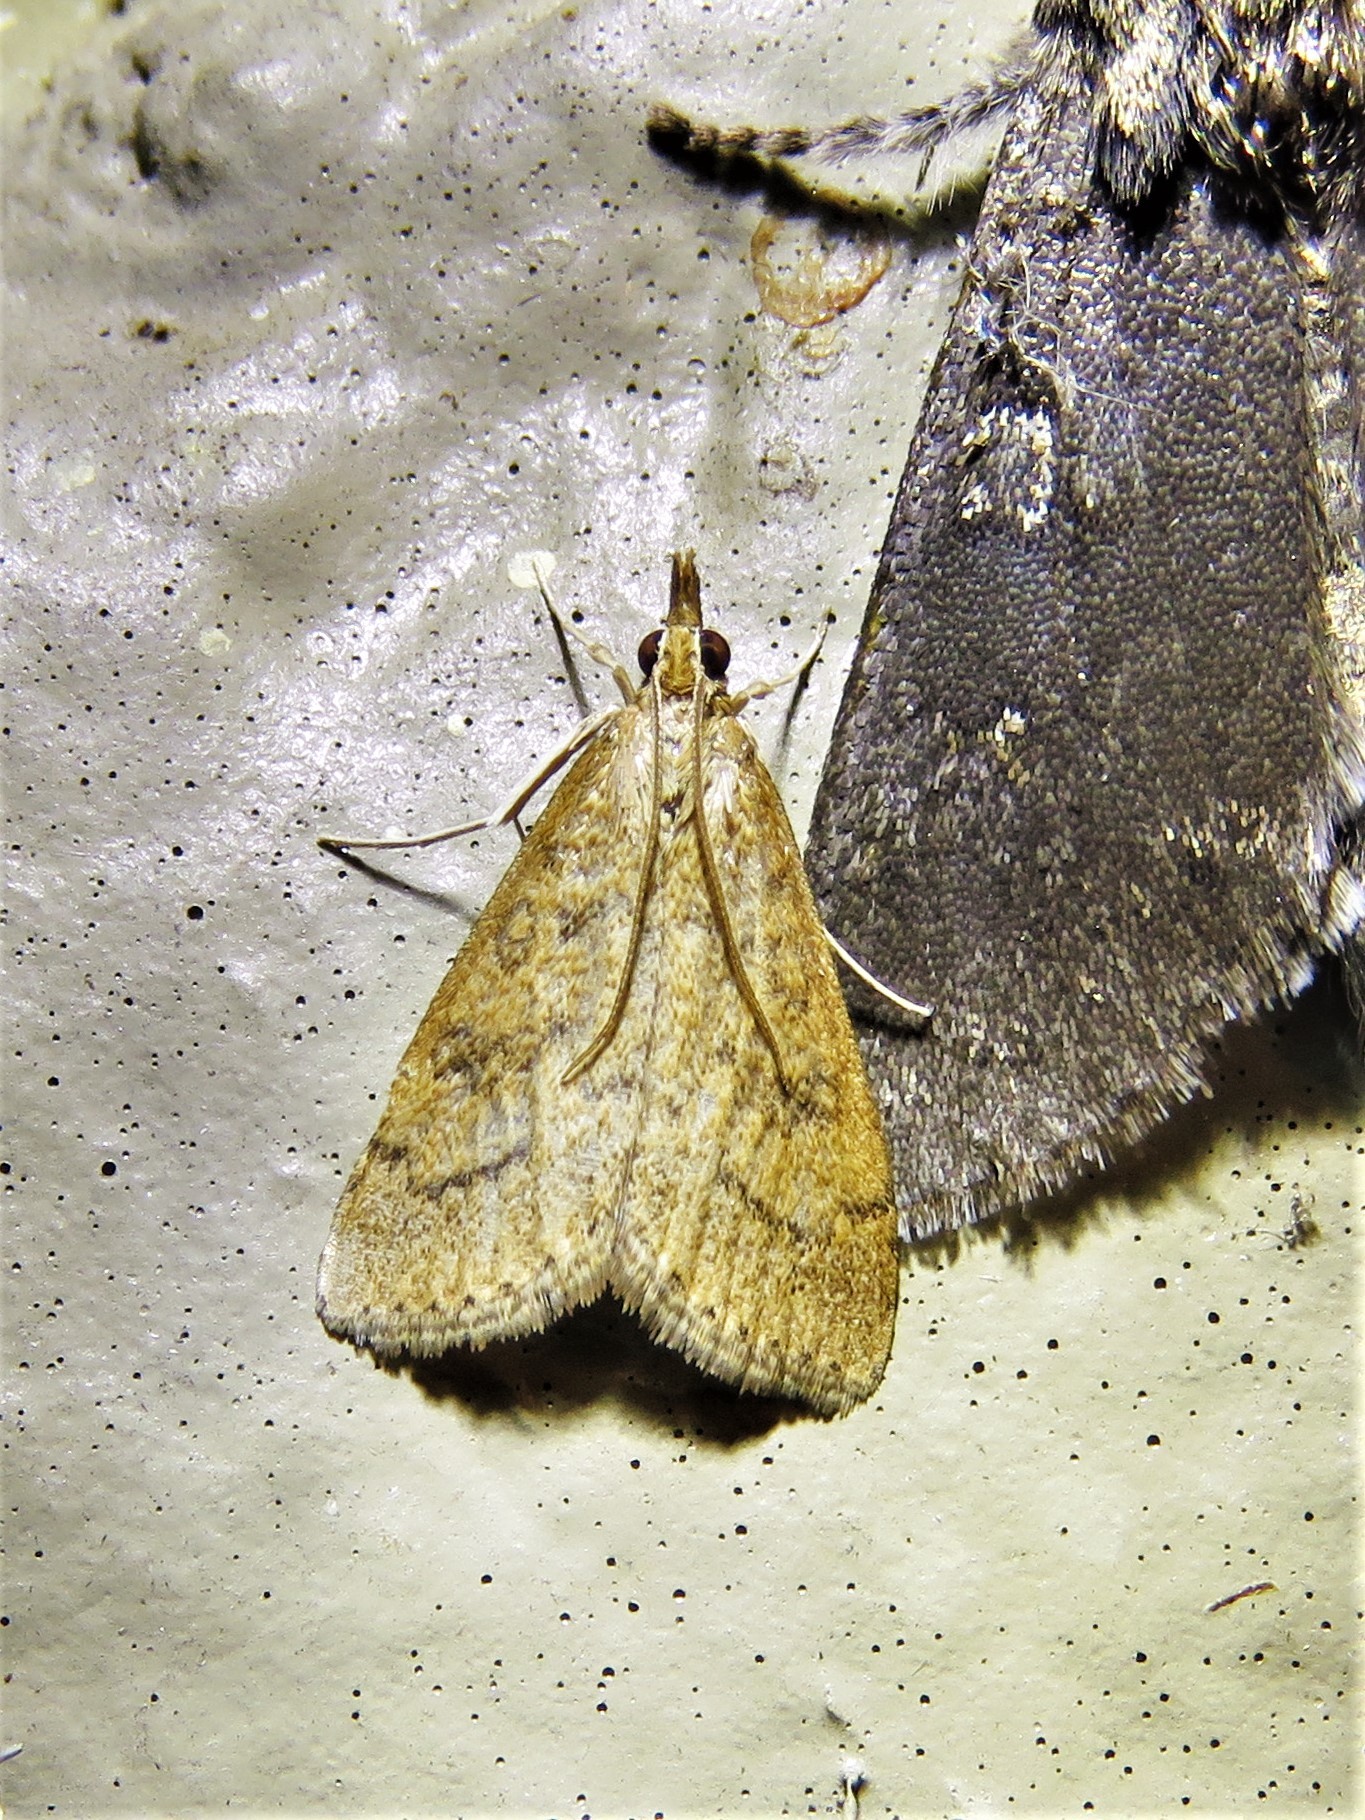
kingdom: Animalia
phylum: Arthropoda
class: Insecta
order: Lepidoptera
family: Crambidae
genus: Udea
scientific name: Udea rubigalis
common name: Celery leaftier moth
